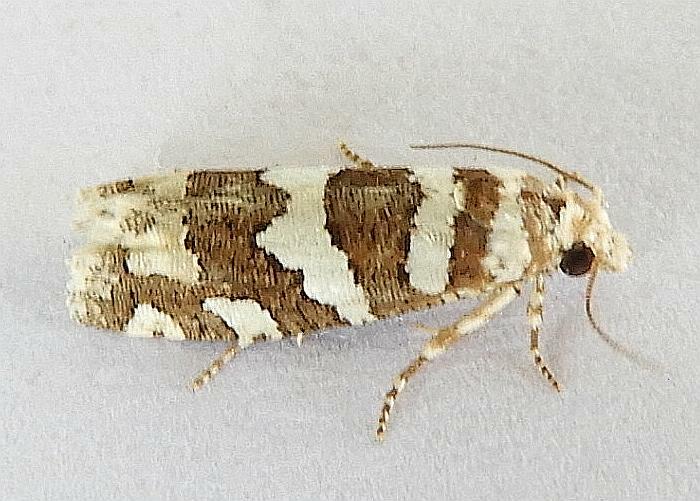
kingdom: Animalia
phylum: Arthropoda
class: Insecta
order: Lepidoptera
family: Tortricidae
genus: Pelochrista
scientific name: Pelochrista robinsonana
